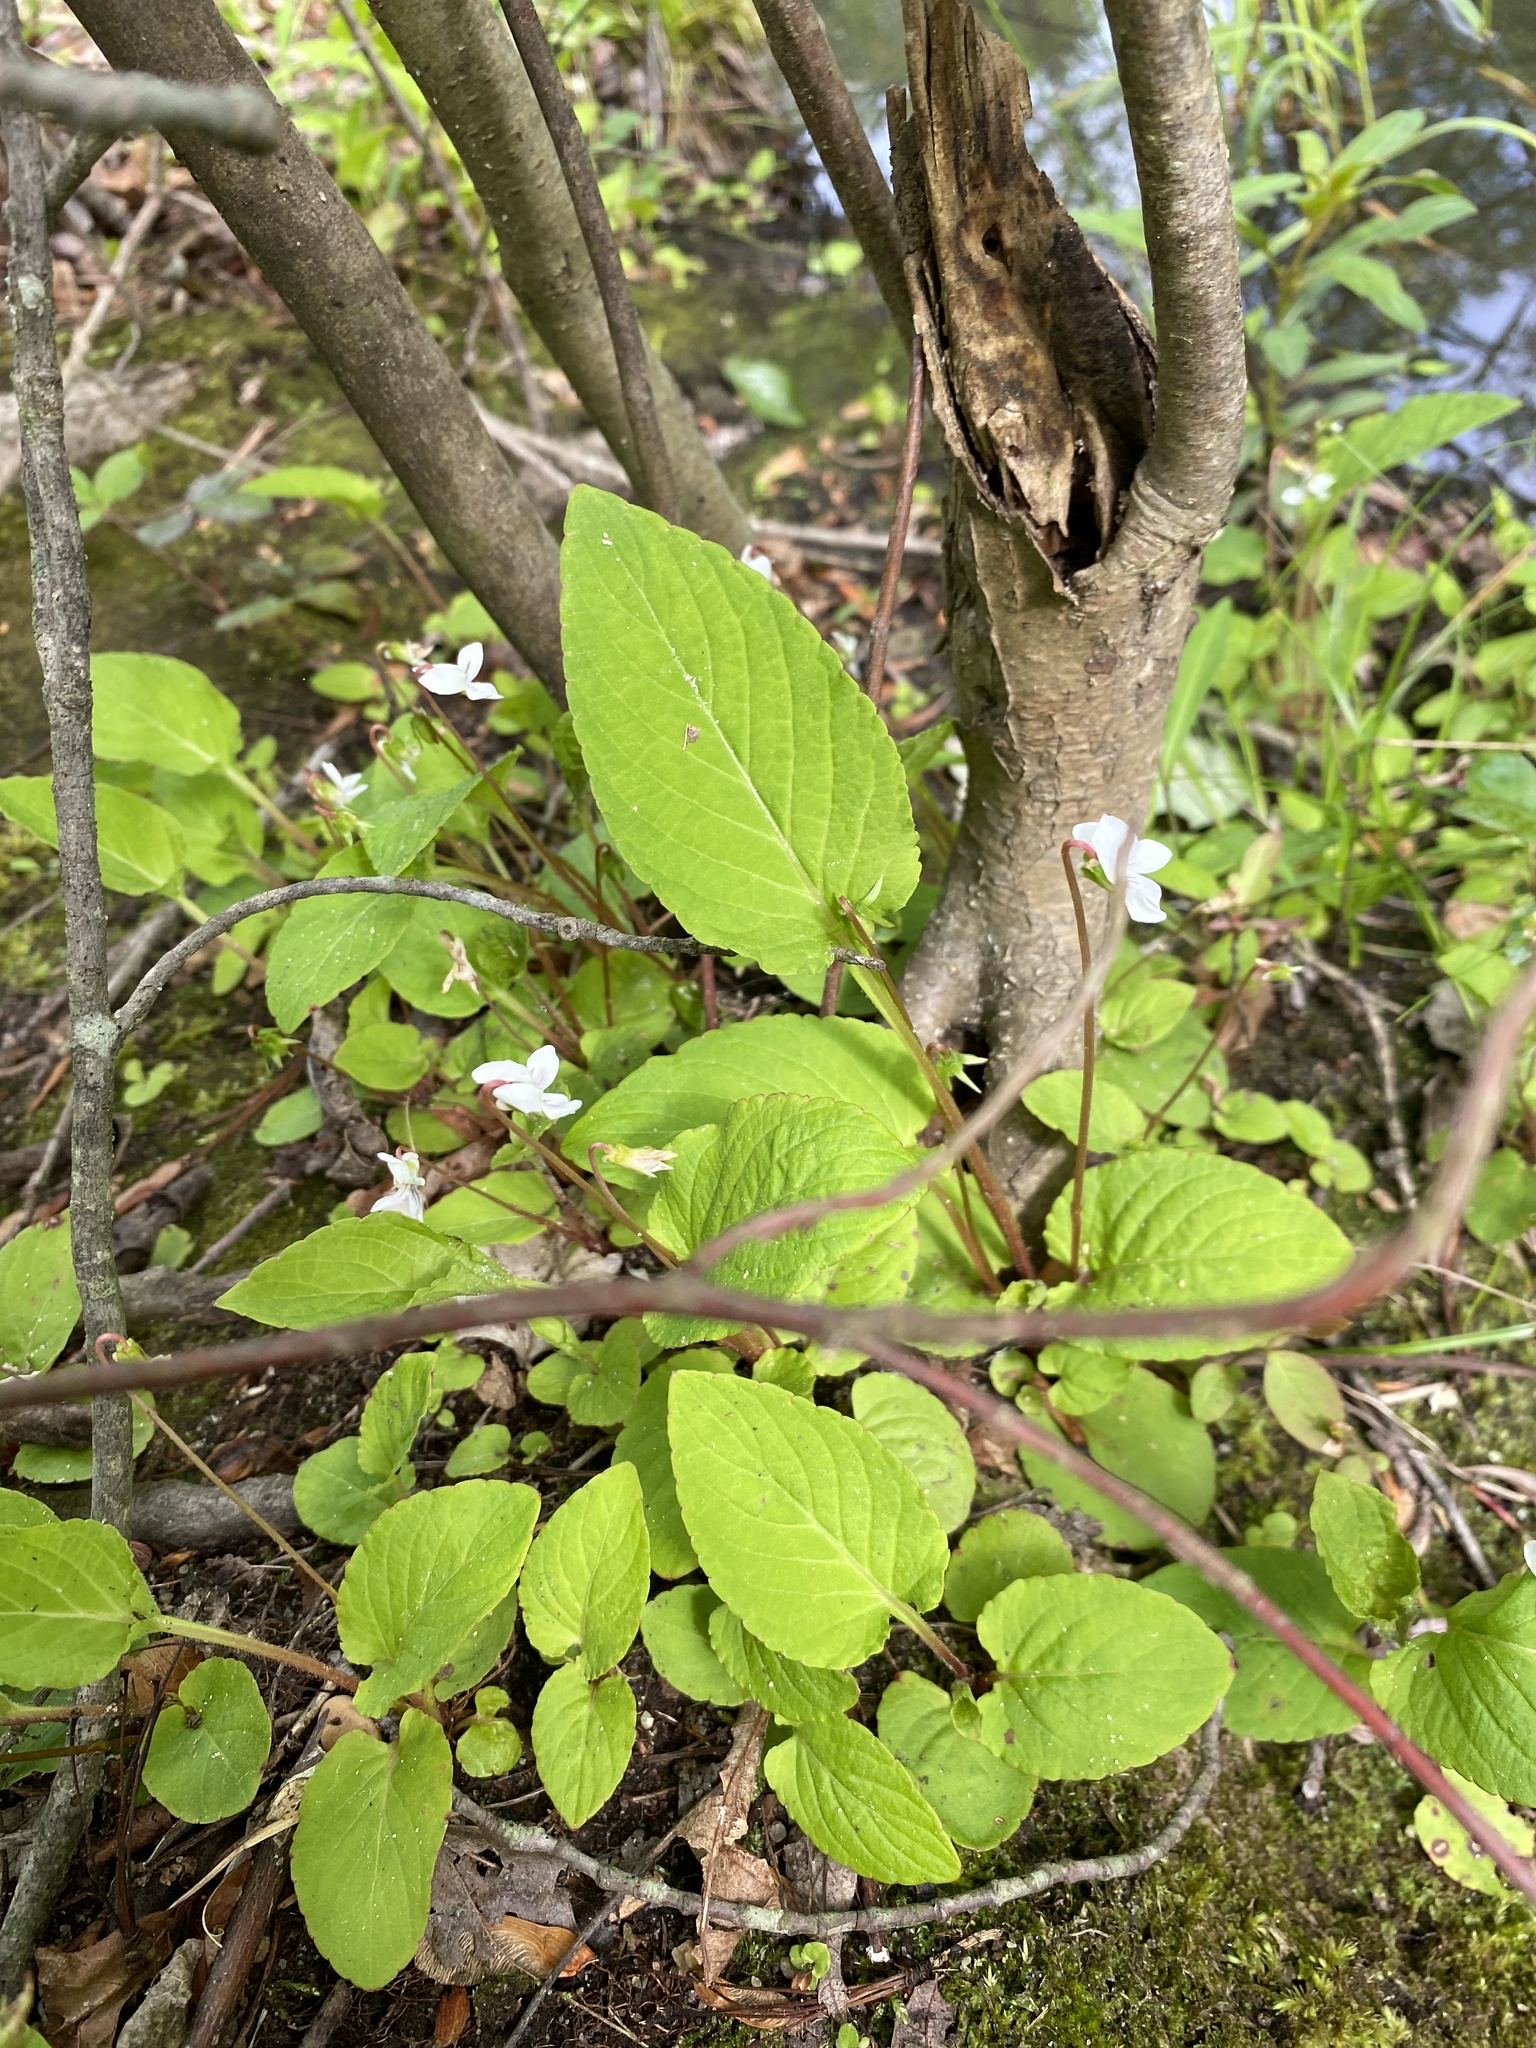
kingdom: Plantae
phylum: Tracheophyta
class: Magnoliopsida
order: Malpighiales
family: Violaceae
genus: Viola
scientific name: Viola primulifolia
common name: Primrose-leaf violet
